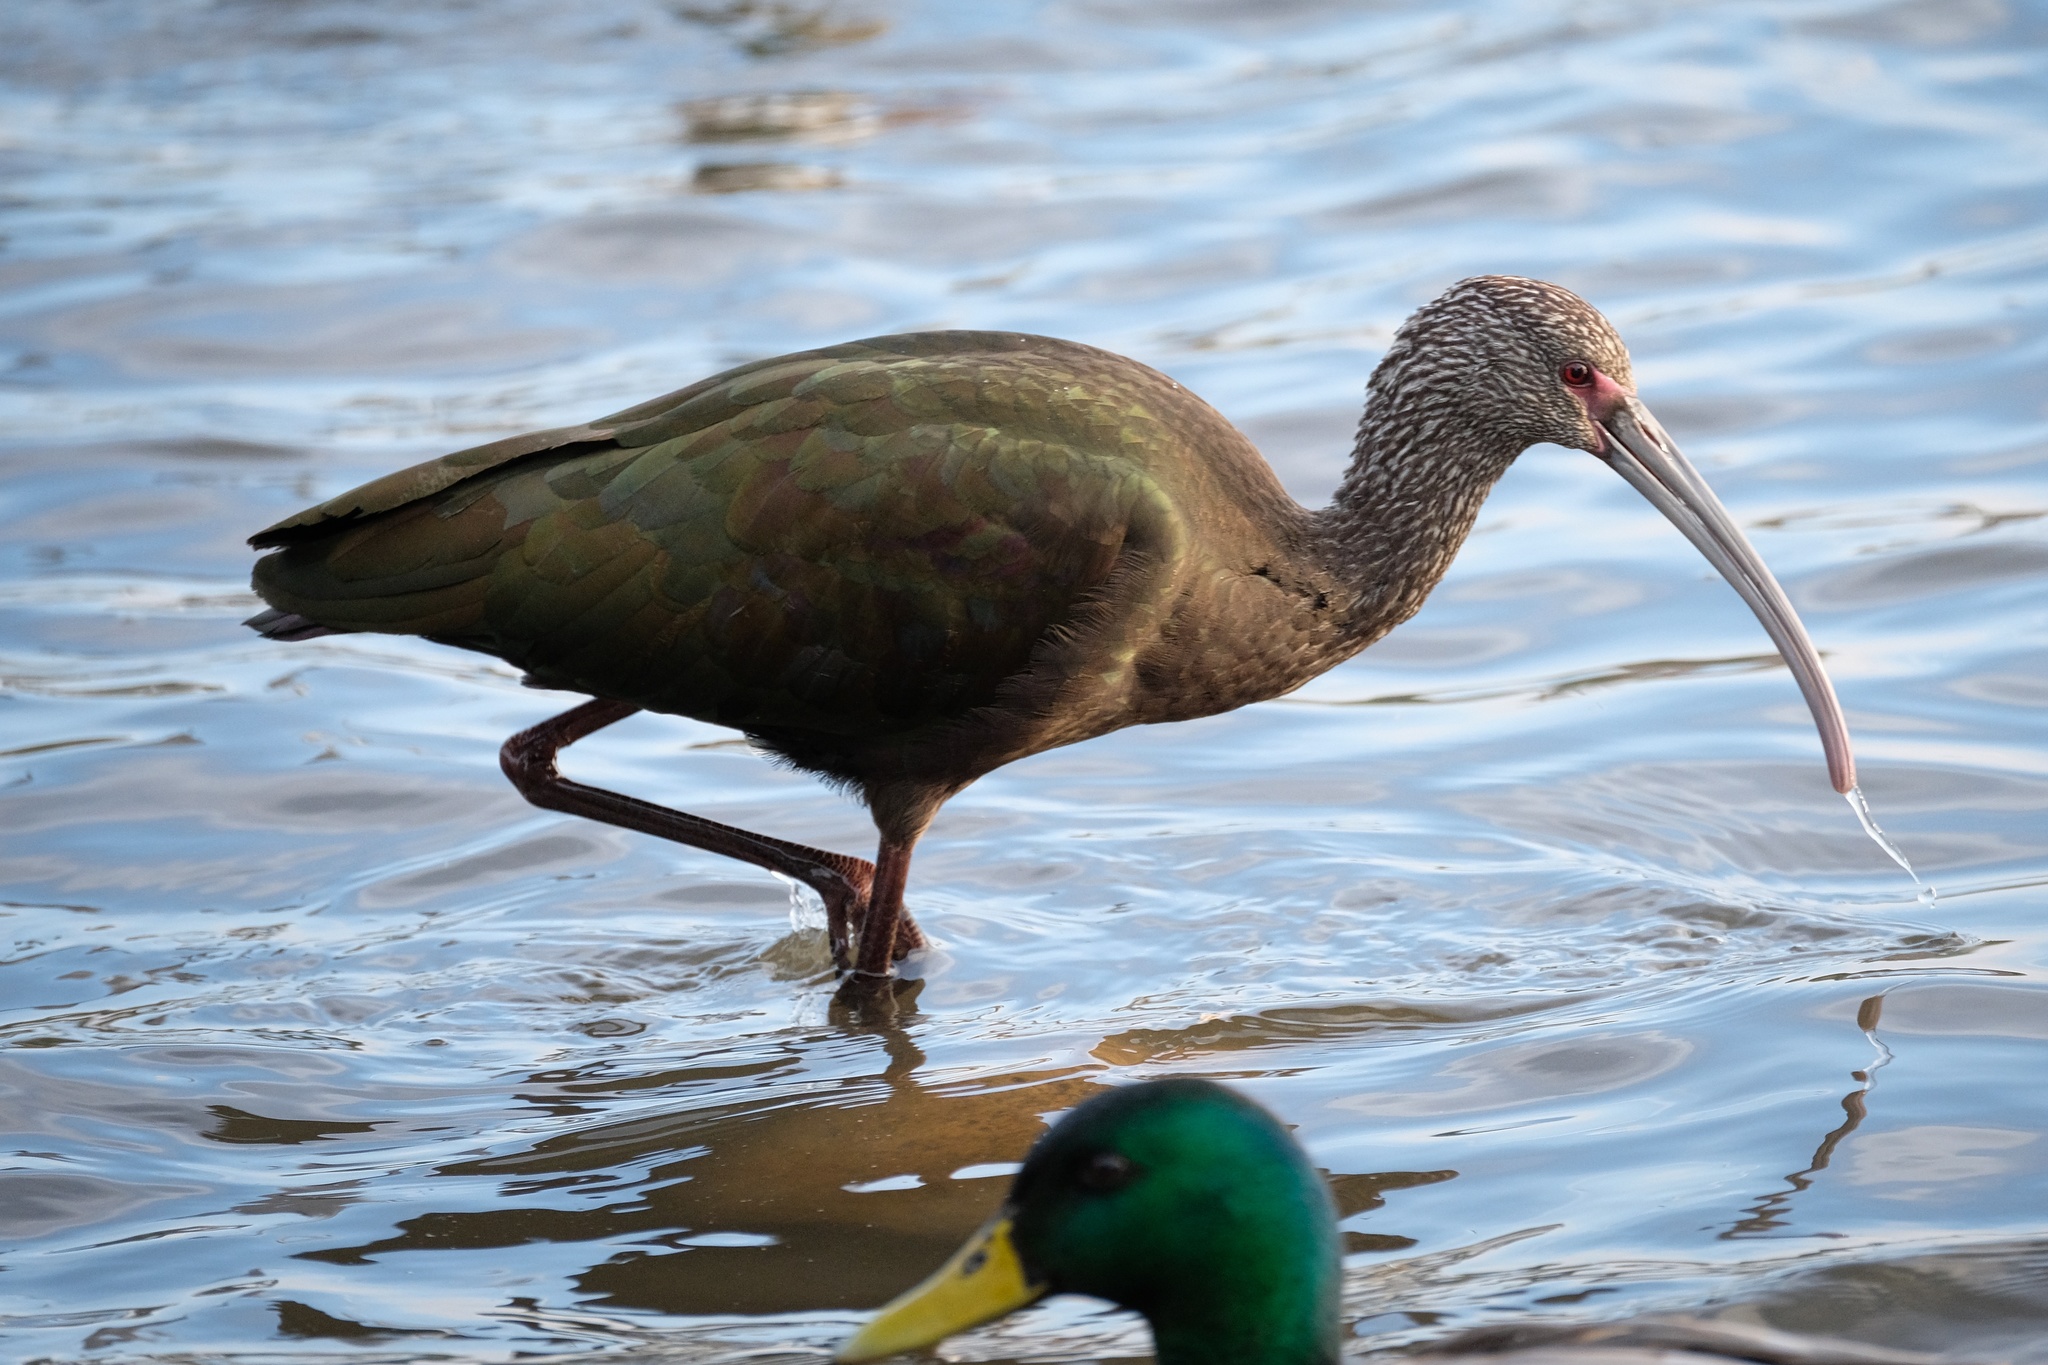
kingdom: Animalia
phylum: Chordata
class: Aves
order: Pelecaniformes
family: Threskiornithidae
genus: Plegadis
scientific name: Plegadis chihi
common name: White-faced ibis
